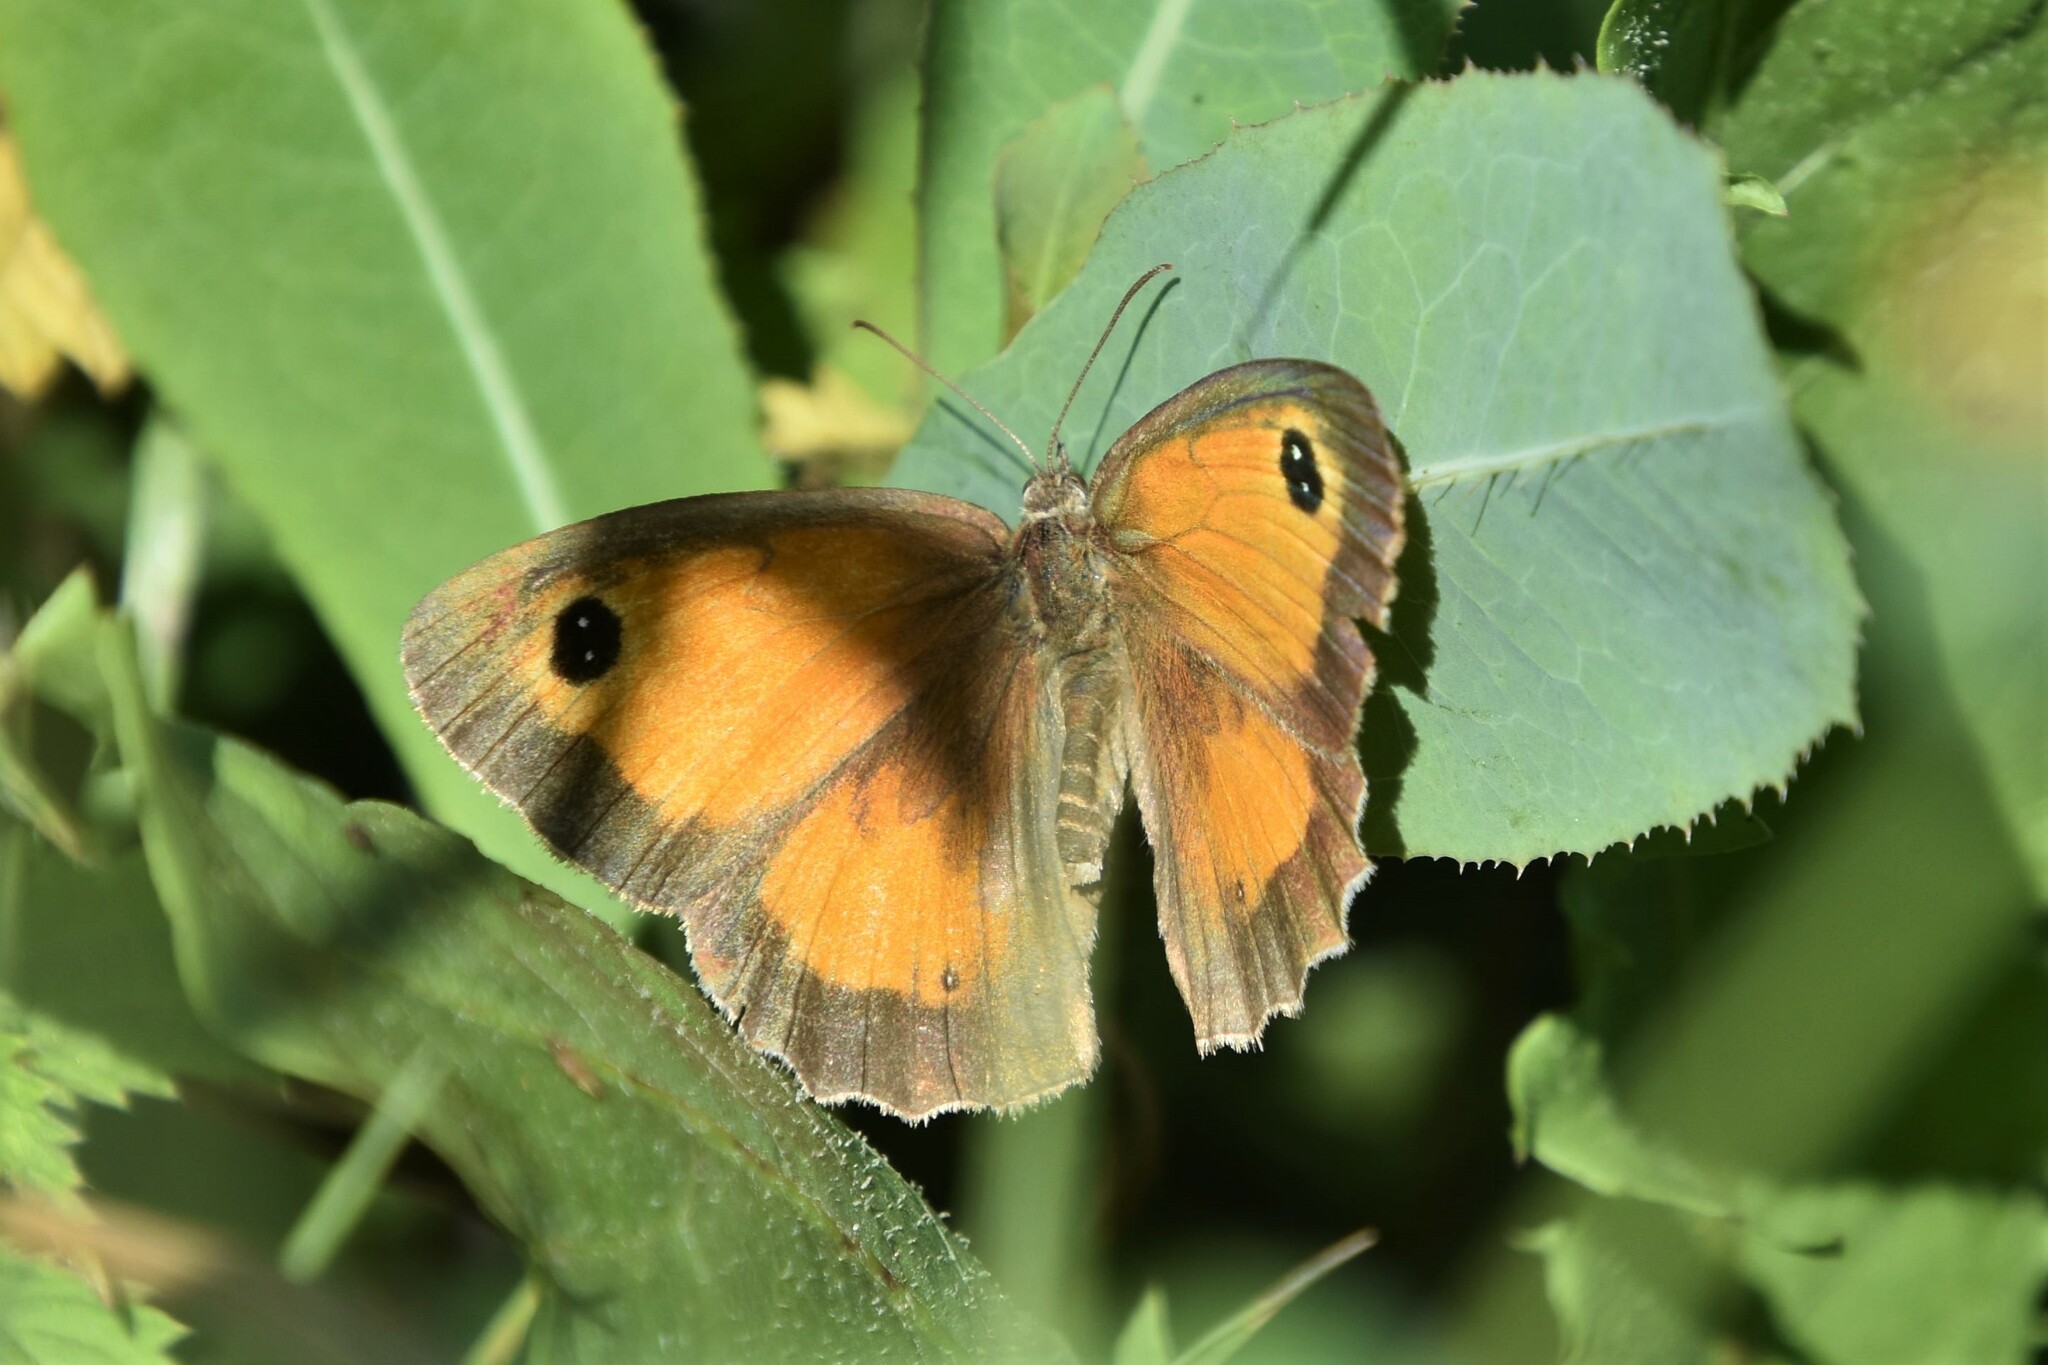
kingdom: Animalia
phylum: Arthropoda
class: Insecta
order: Lepidoptera
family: Nymphalidae
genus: Pyronia
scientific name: Pyronia tithonus
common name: Gatekeeper
